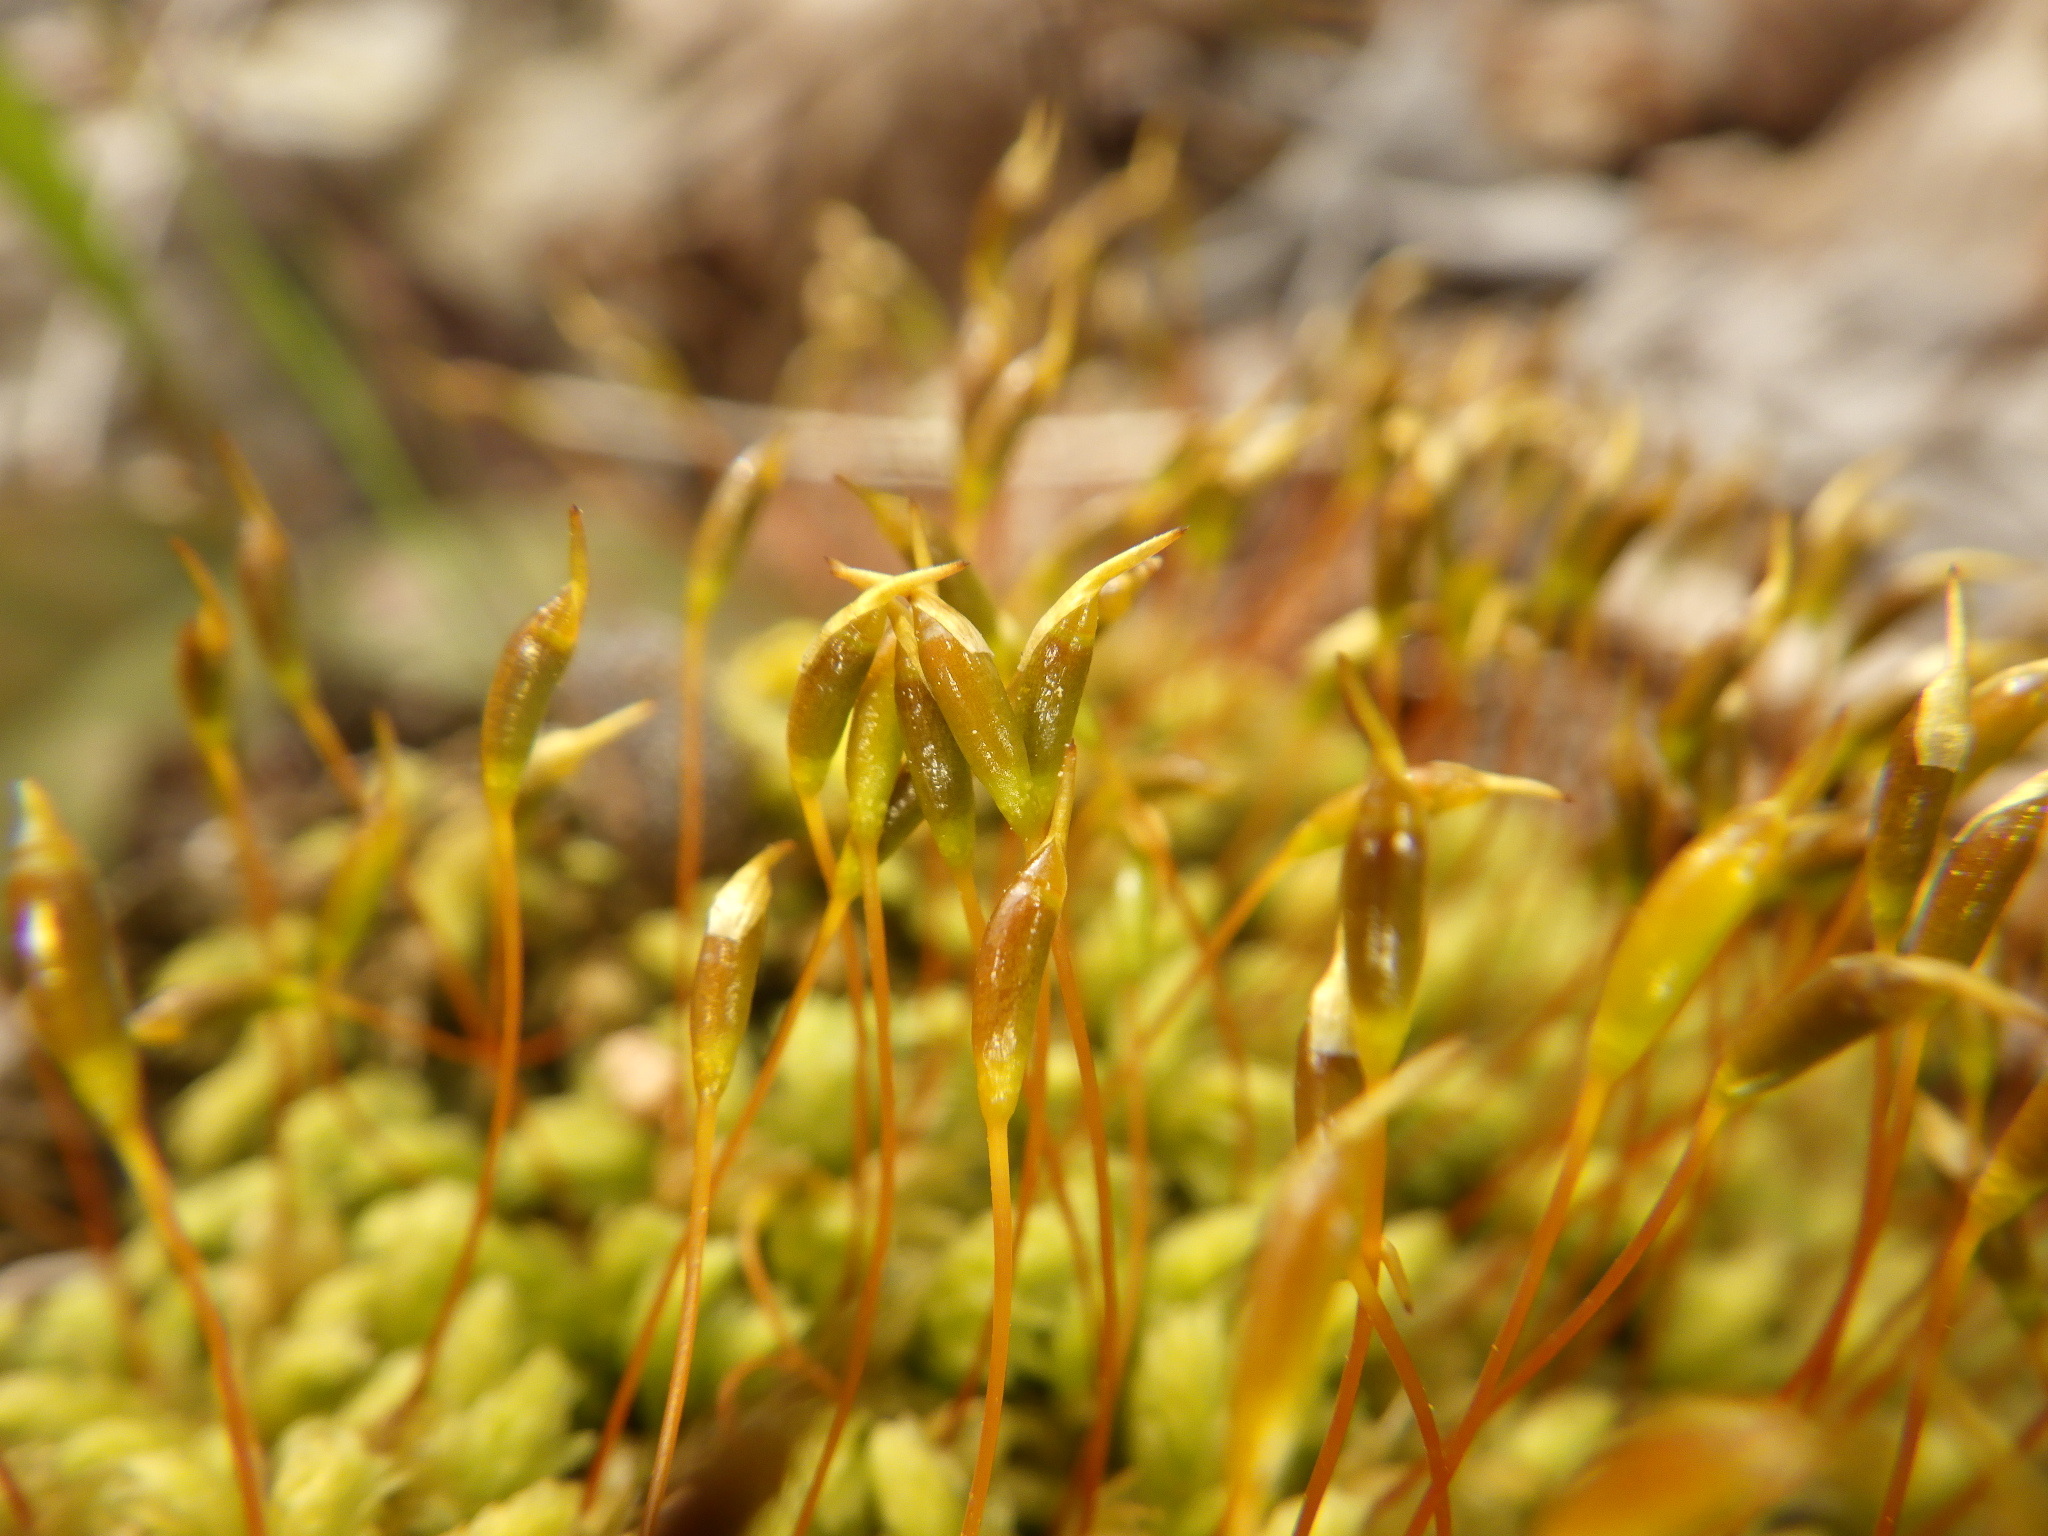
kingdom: Plantae
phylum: Bryophyta
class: Bryopsida
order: Aulacomniales
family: Aulacomniaceae
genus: Aulacomnium
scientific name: Aulacomnium heterostichum
